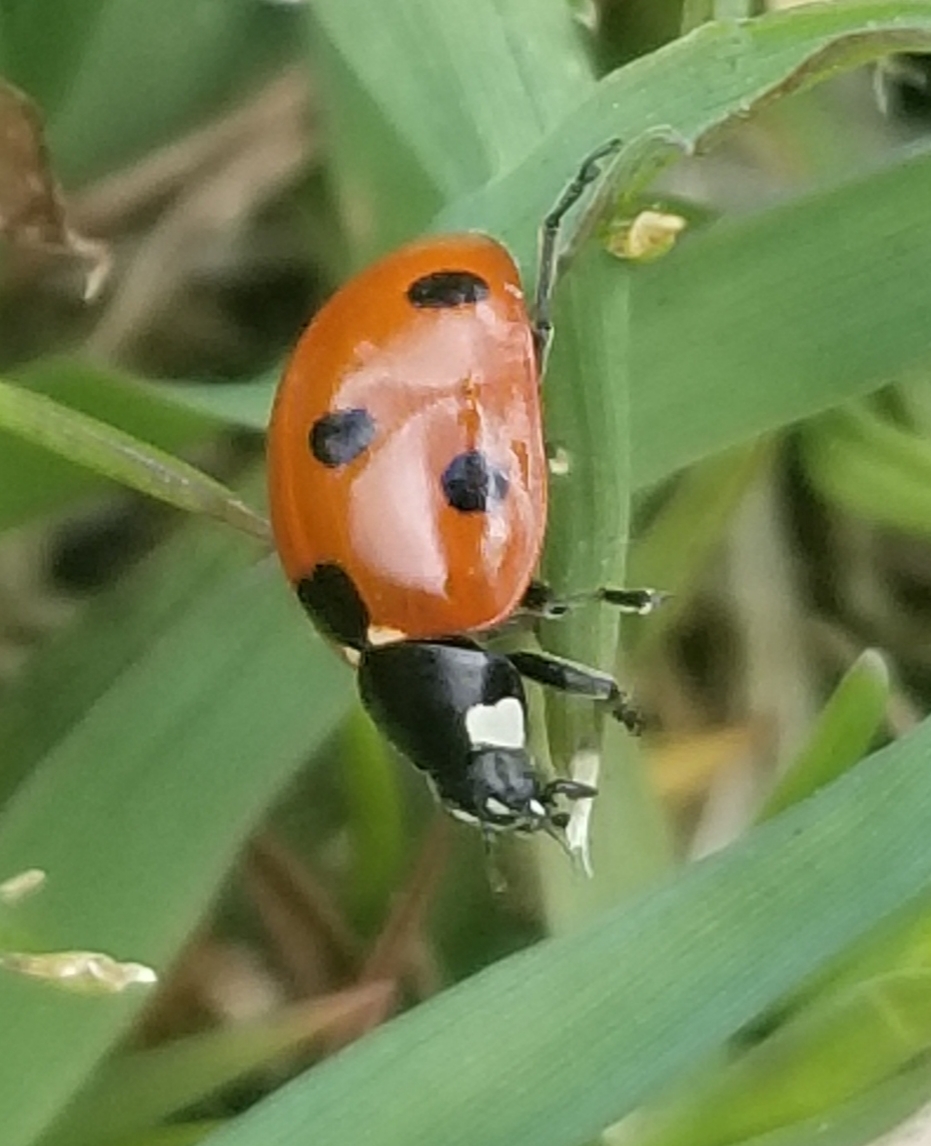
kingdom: Animalia
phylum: Arthropoda
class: Insecta
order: Coleoptera
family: Coccinellidae
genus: Coccinella
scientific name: Coccinella septempunctata
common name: Sevenspotted lady beetle
